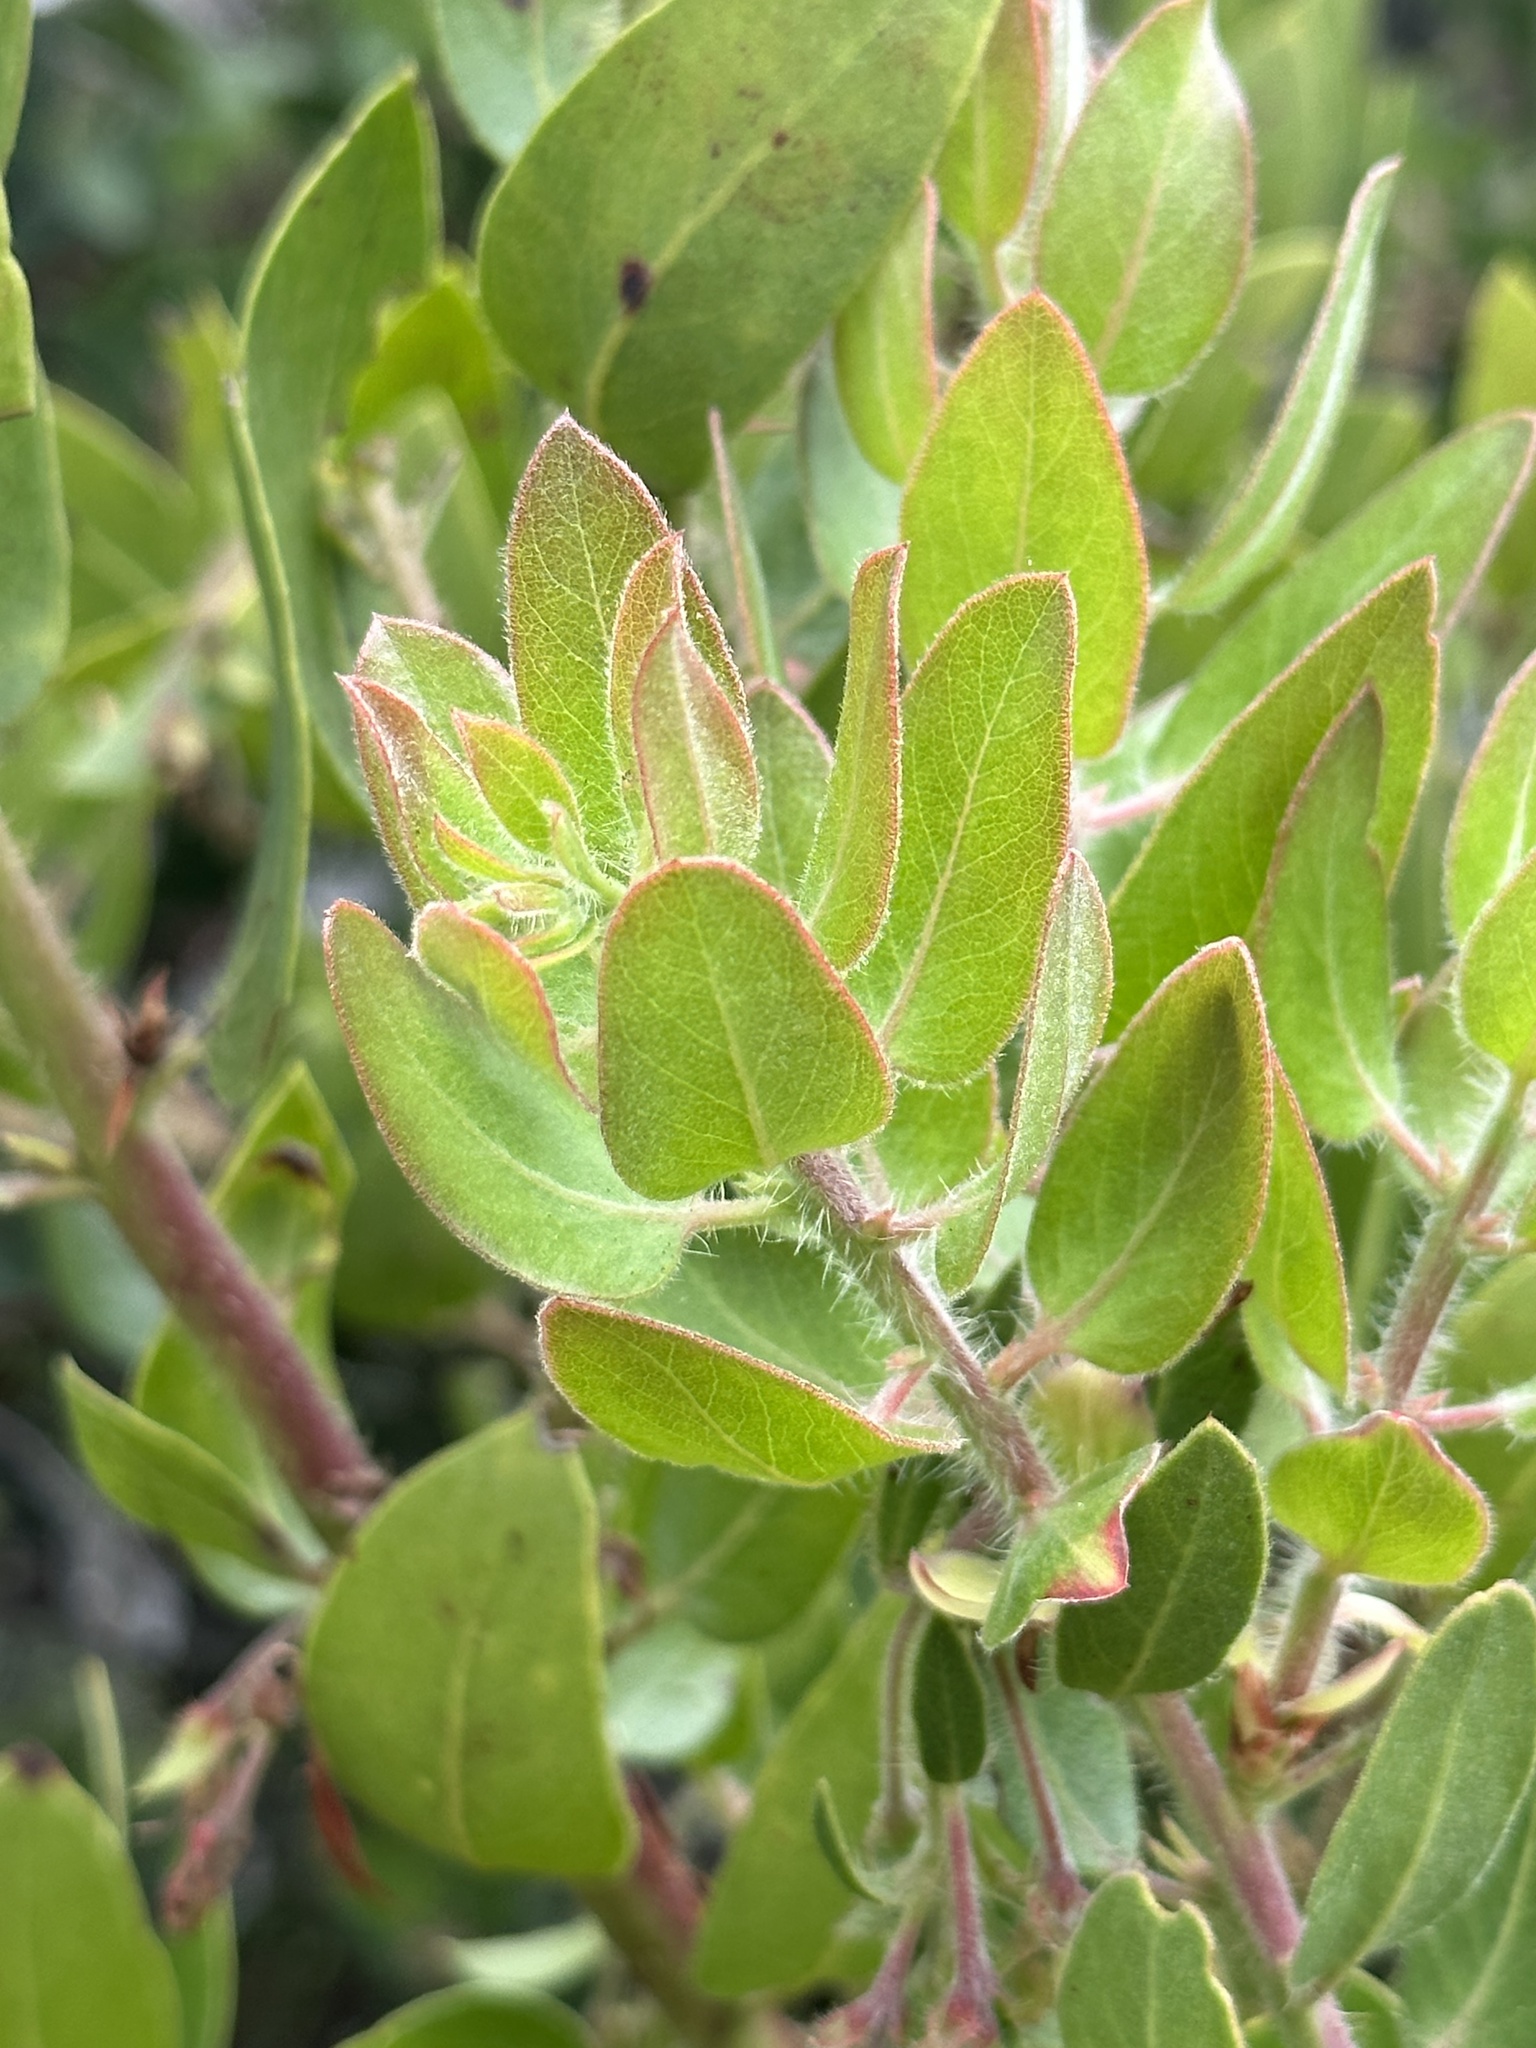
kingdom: Plantae
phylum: Tracheophyta
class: Magnoliopsida
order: Ericales
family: Ericaceae
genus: Arctostaphylos
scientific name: Arctostaphylos glandulosa
